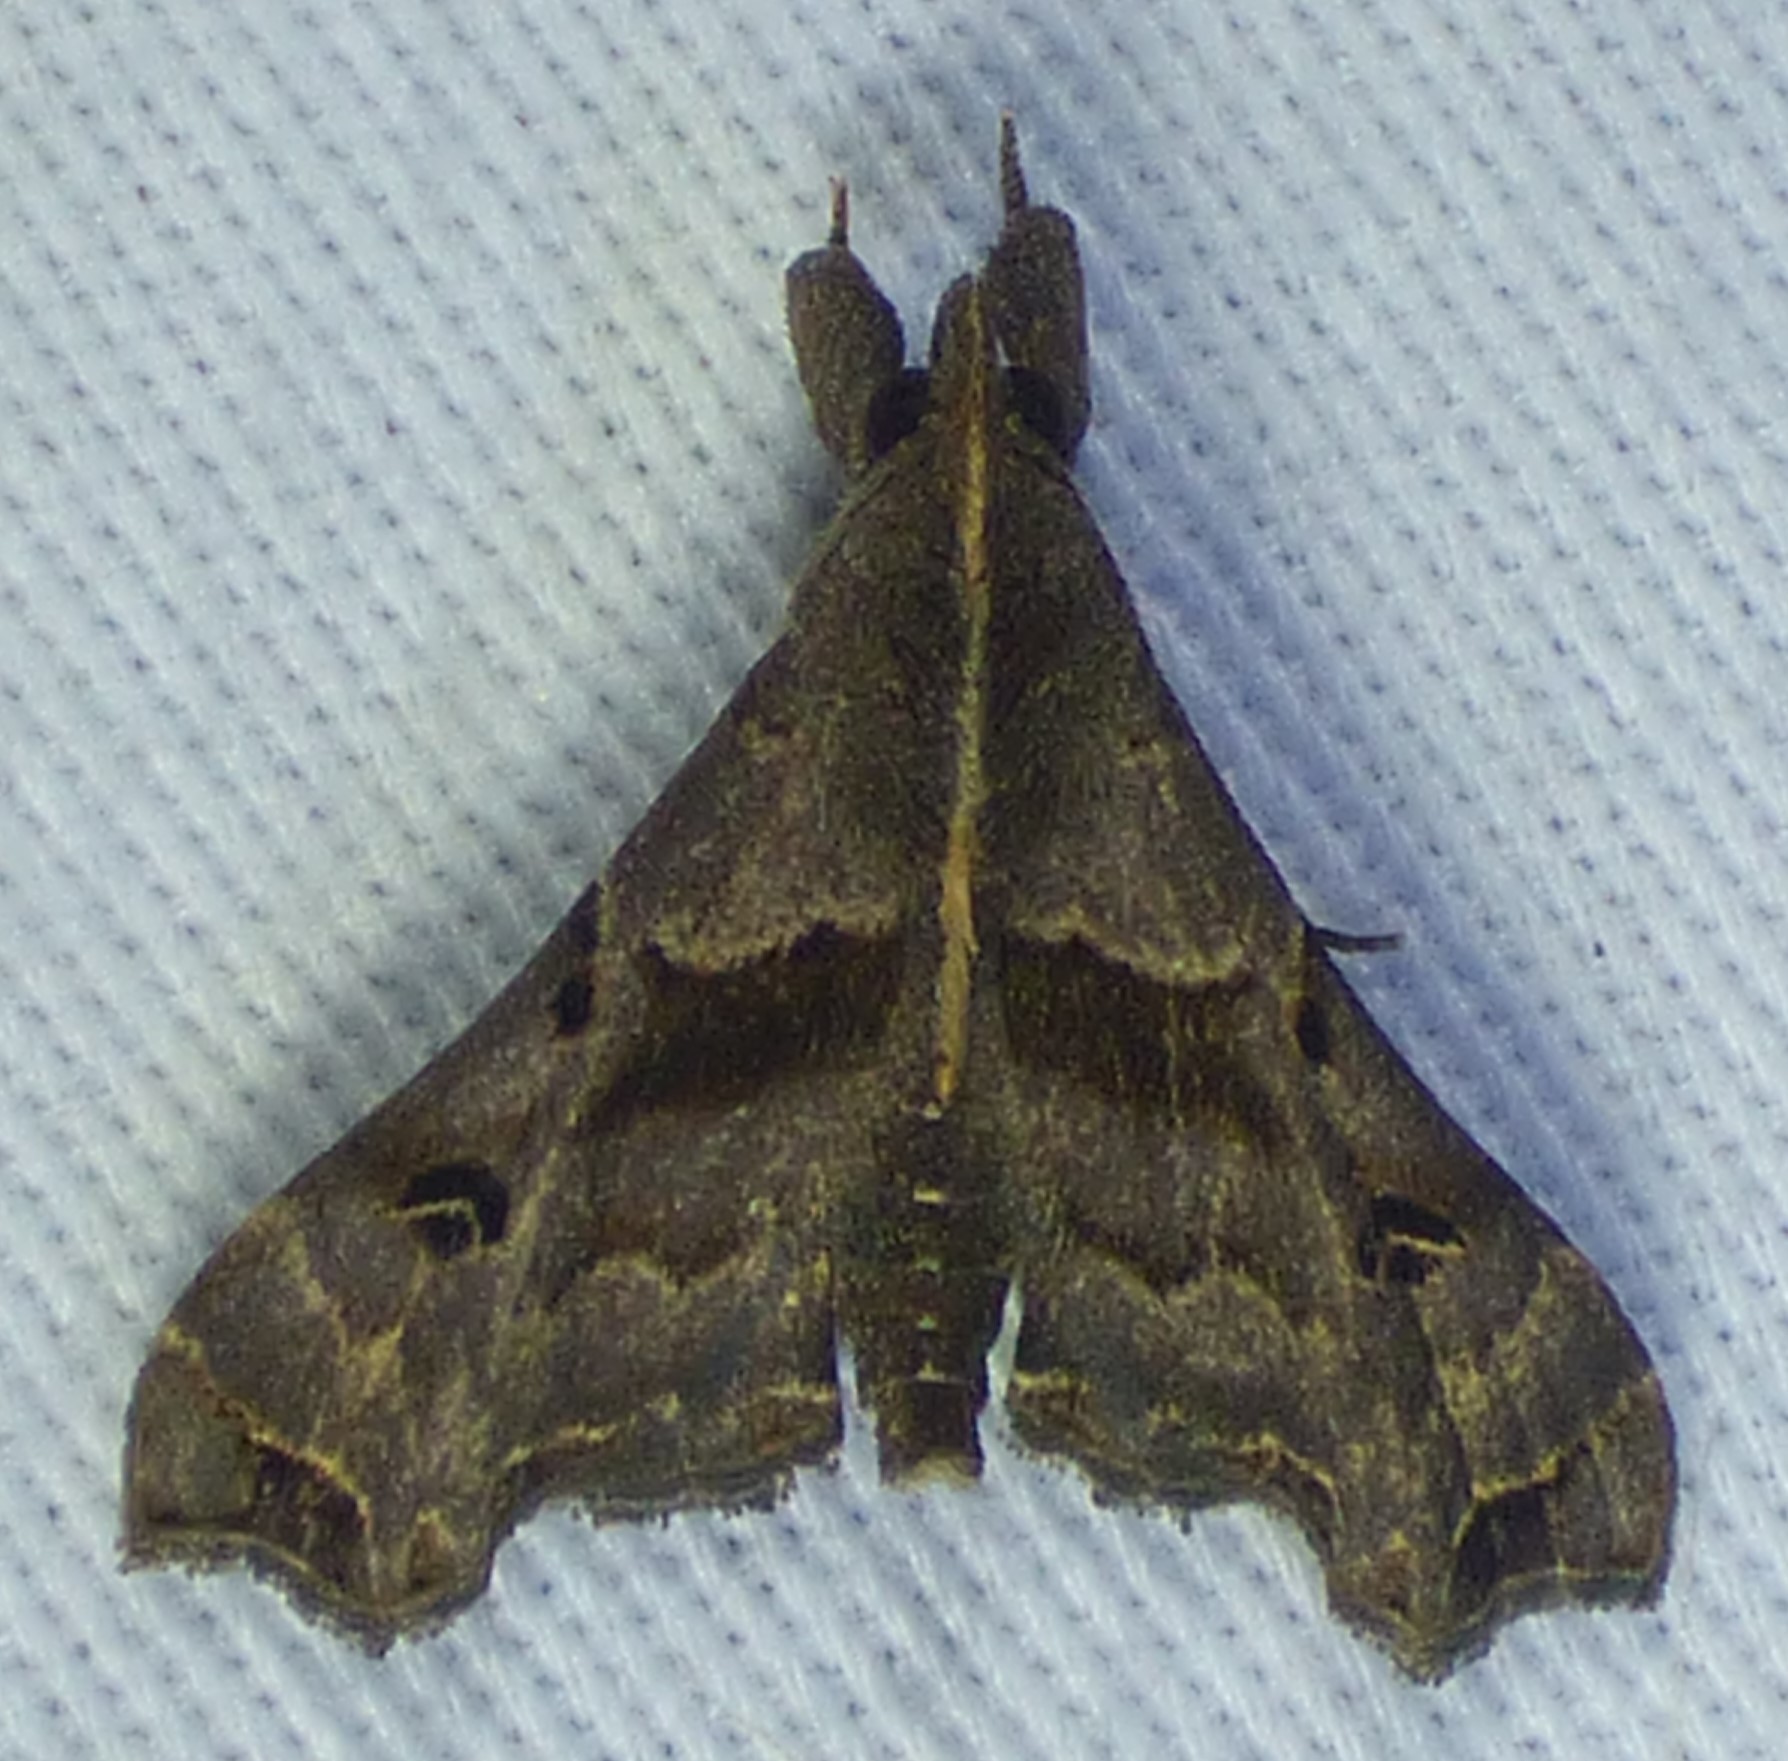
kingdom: Animalia
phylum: Arthropoda
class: Insecta
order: Lepidoptera
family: Erebidae
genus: Palthis
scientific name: Palthis asopialis
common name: Faint-spotted palthis moth
